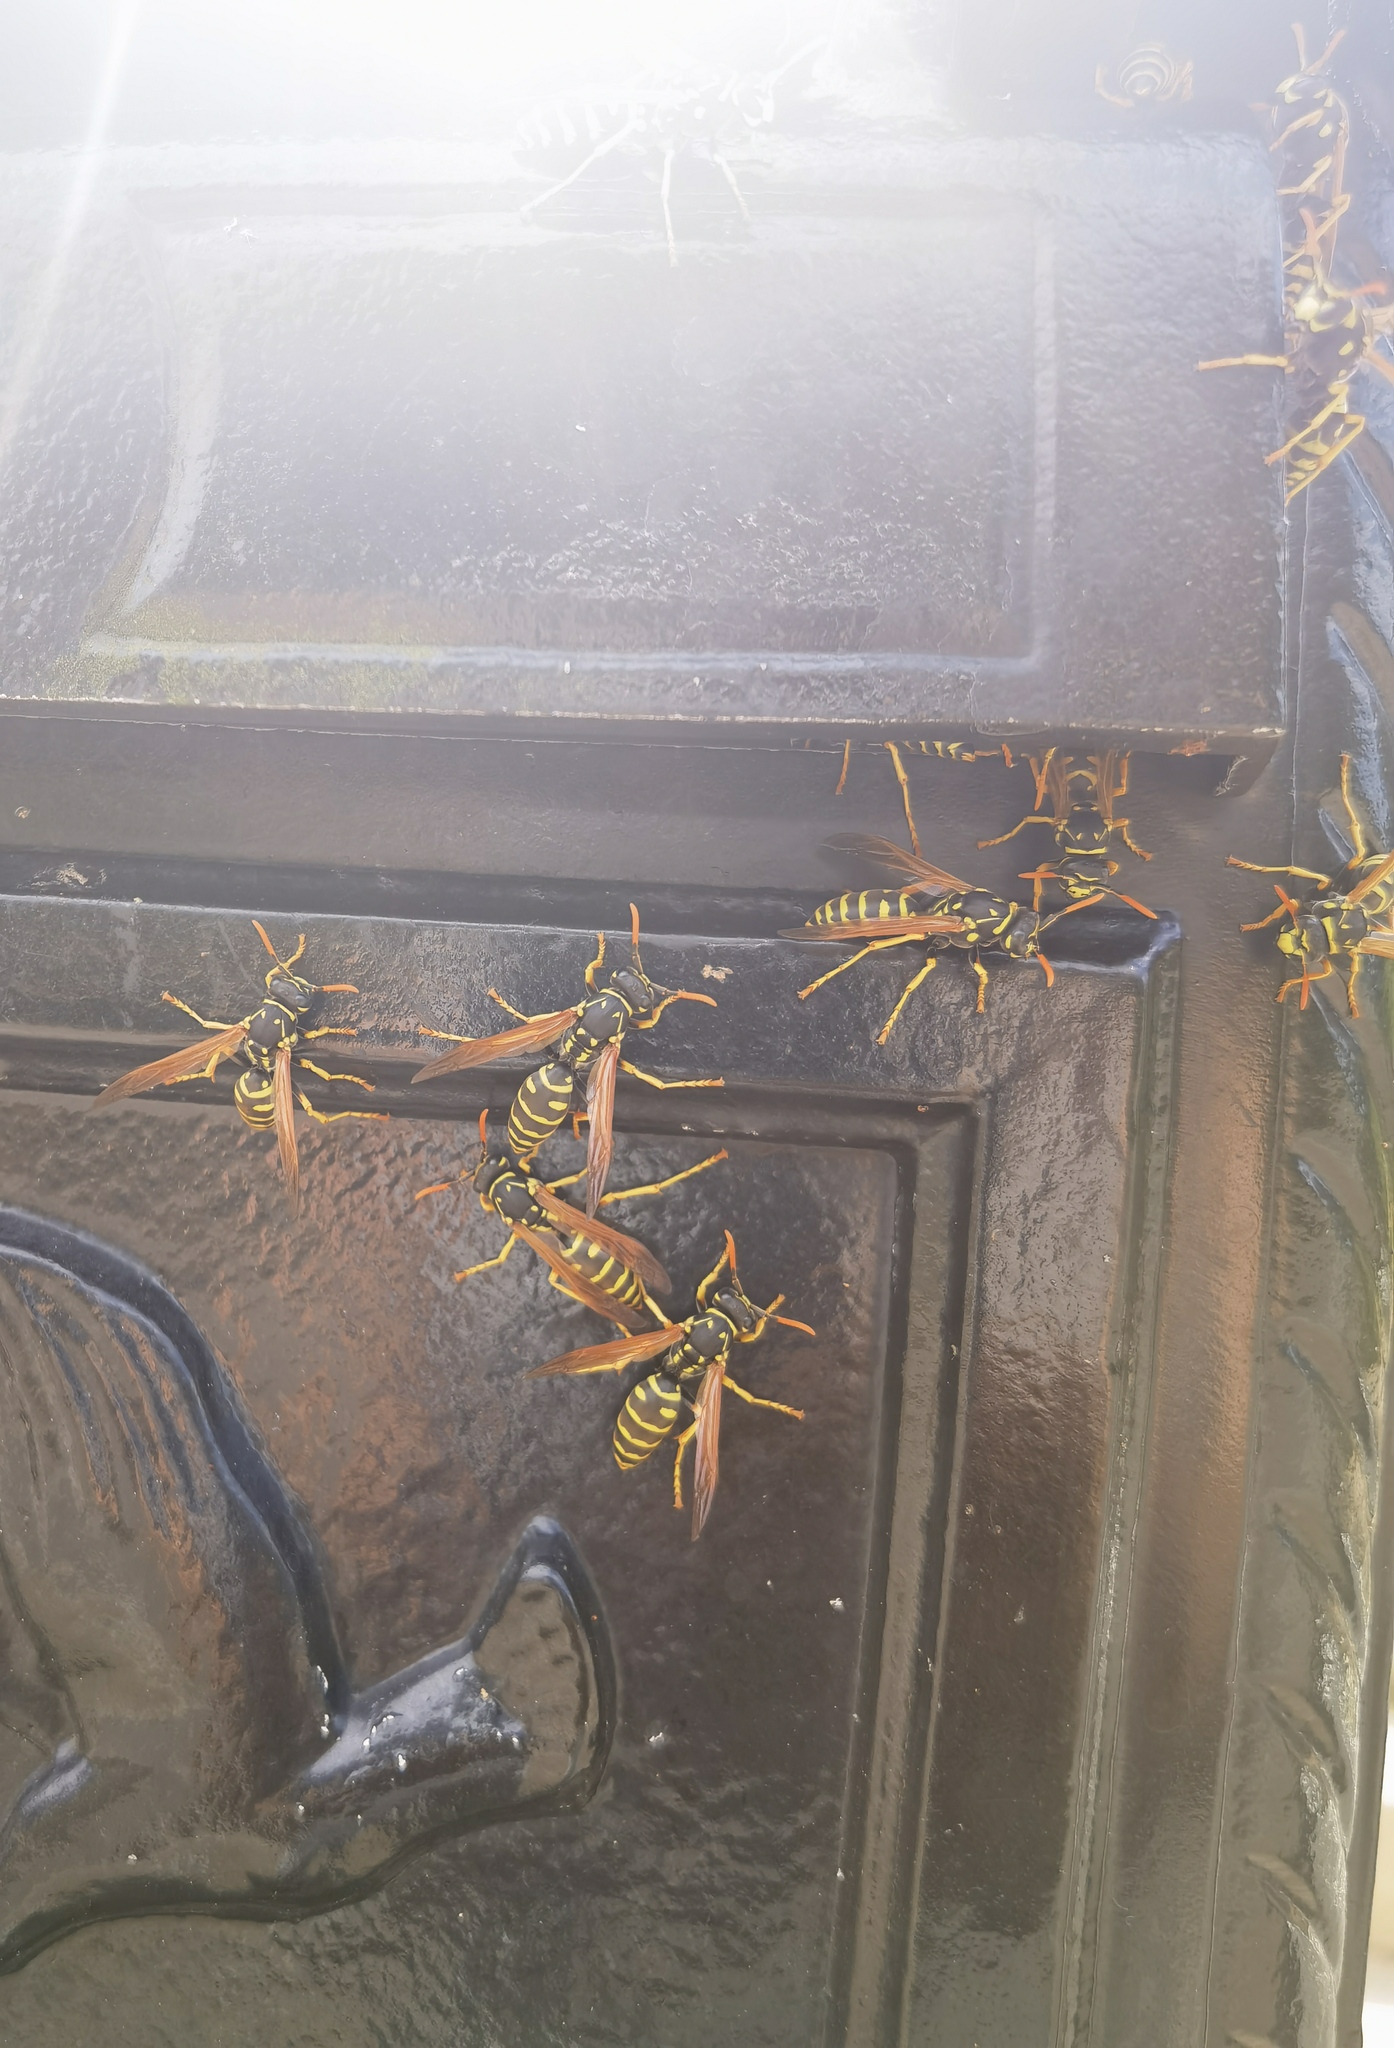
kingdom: Animalia
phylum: Arthropoda
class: Insecta
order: Hymenoptera
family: Eumenidae
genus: Polistes
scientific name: Polistes dominula
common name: Paper wasp
